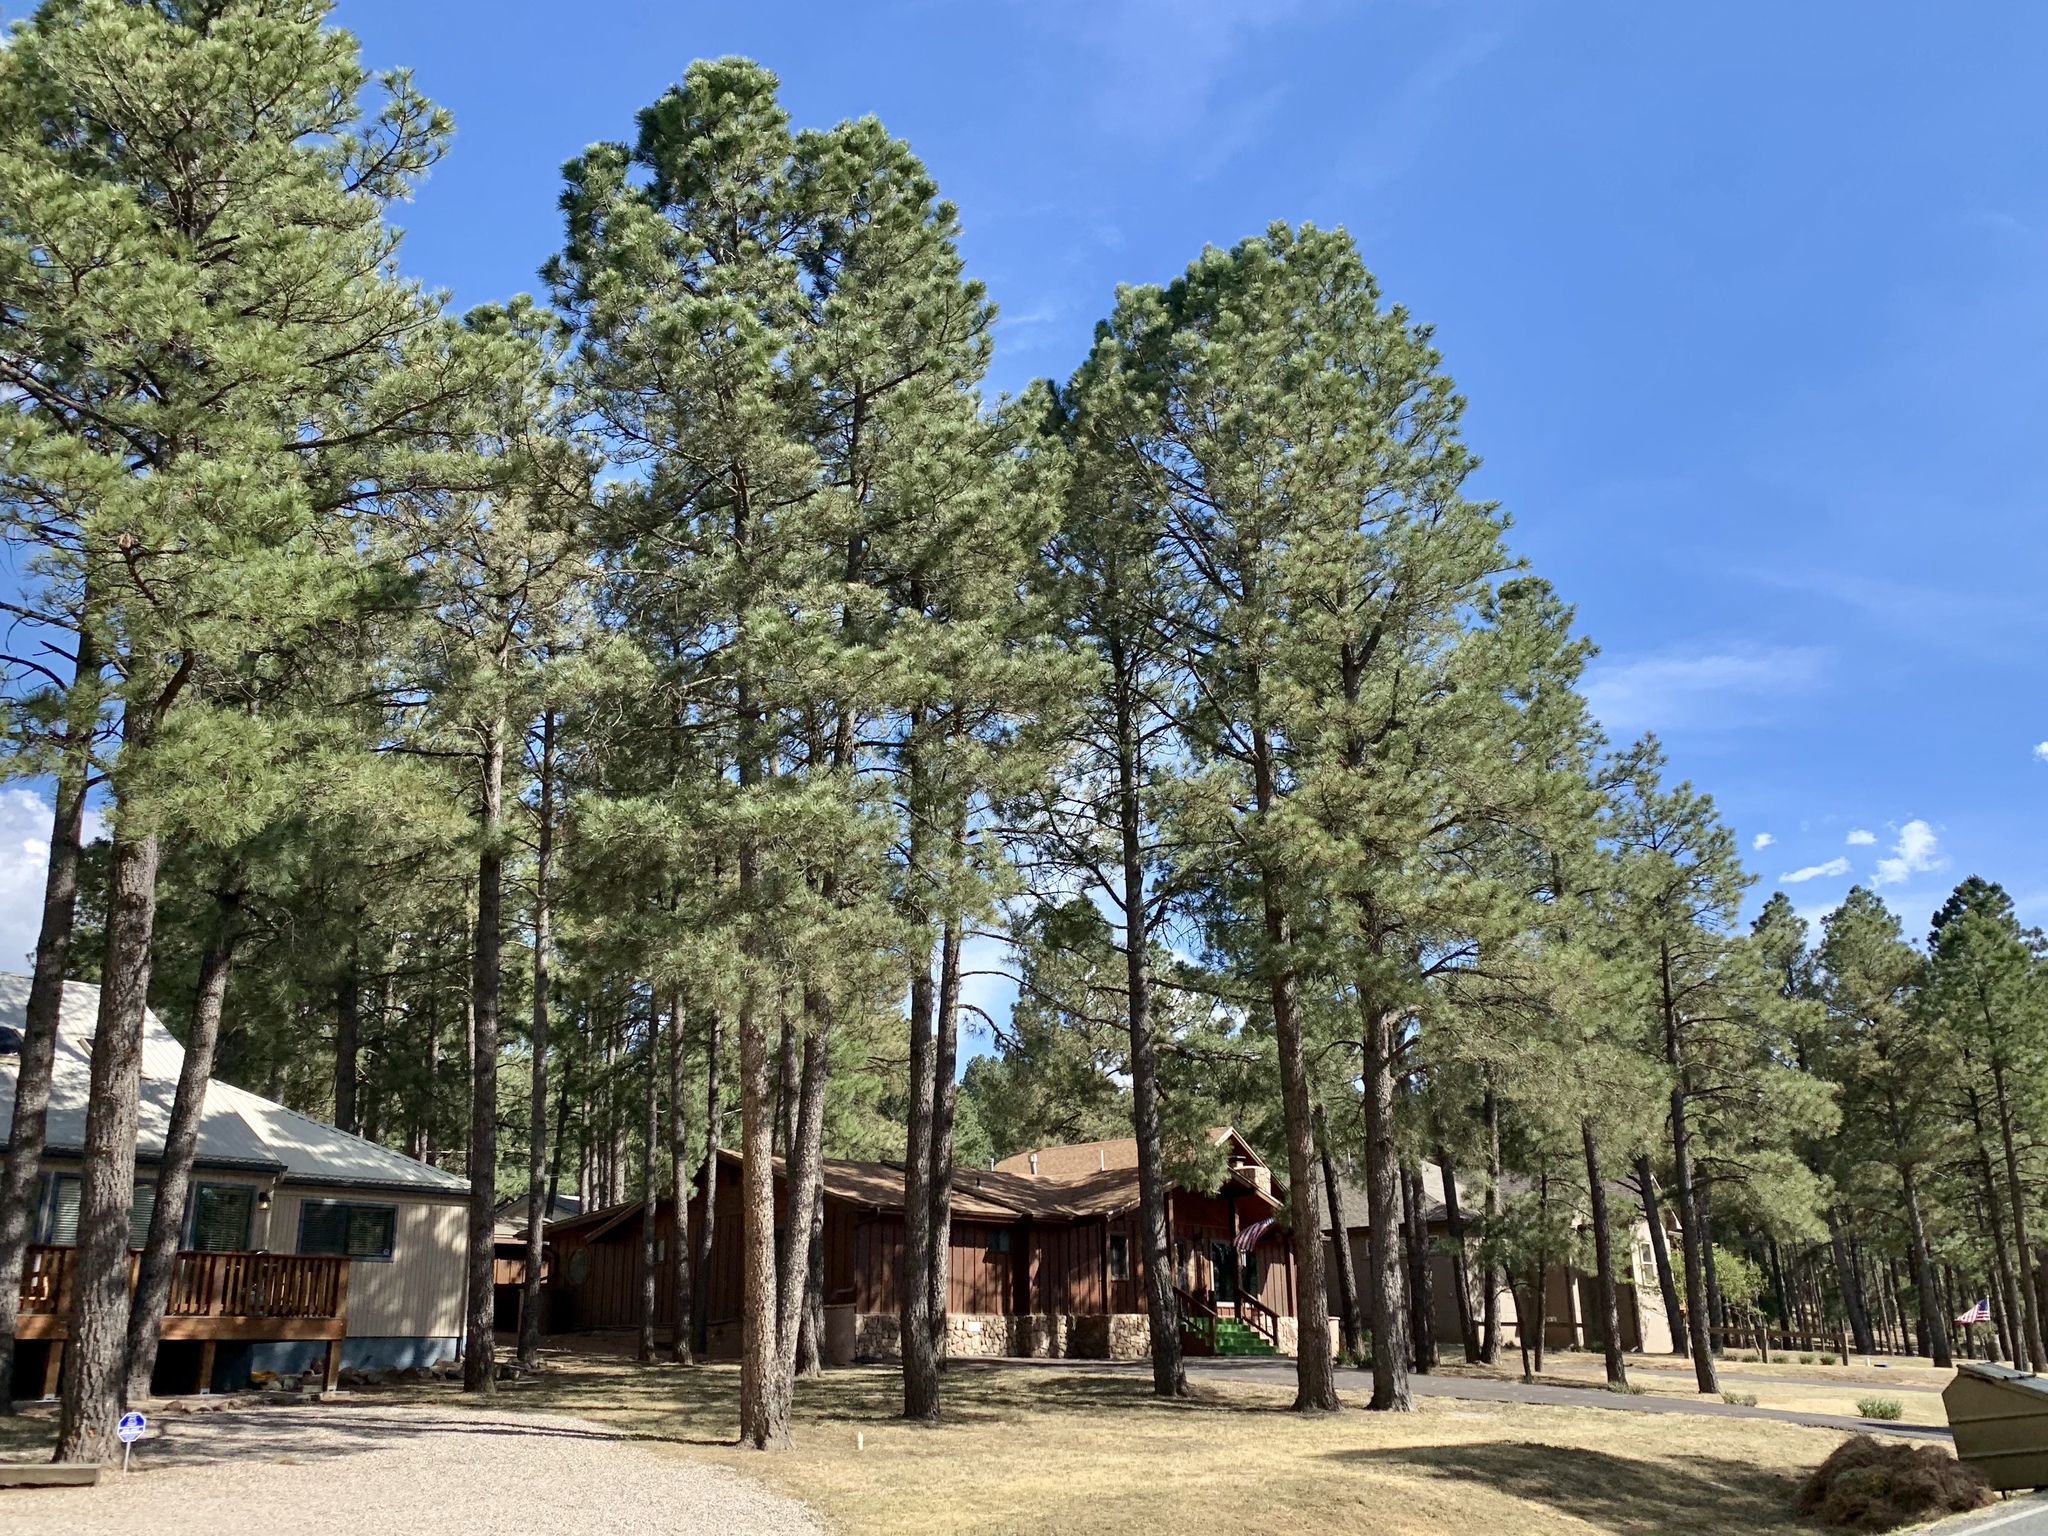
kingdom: Plantae
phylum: Tracheophyta
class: Pinopsida
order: Pinales
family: Pinaceae
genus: Pinus
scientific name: Pinus ponderosa
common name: Western yellow-pine
